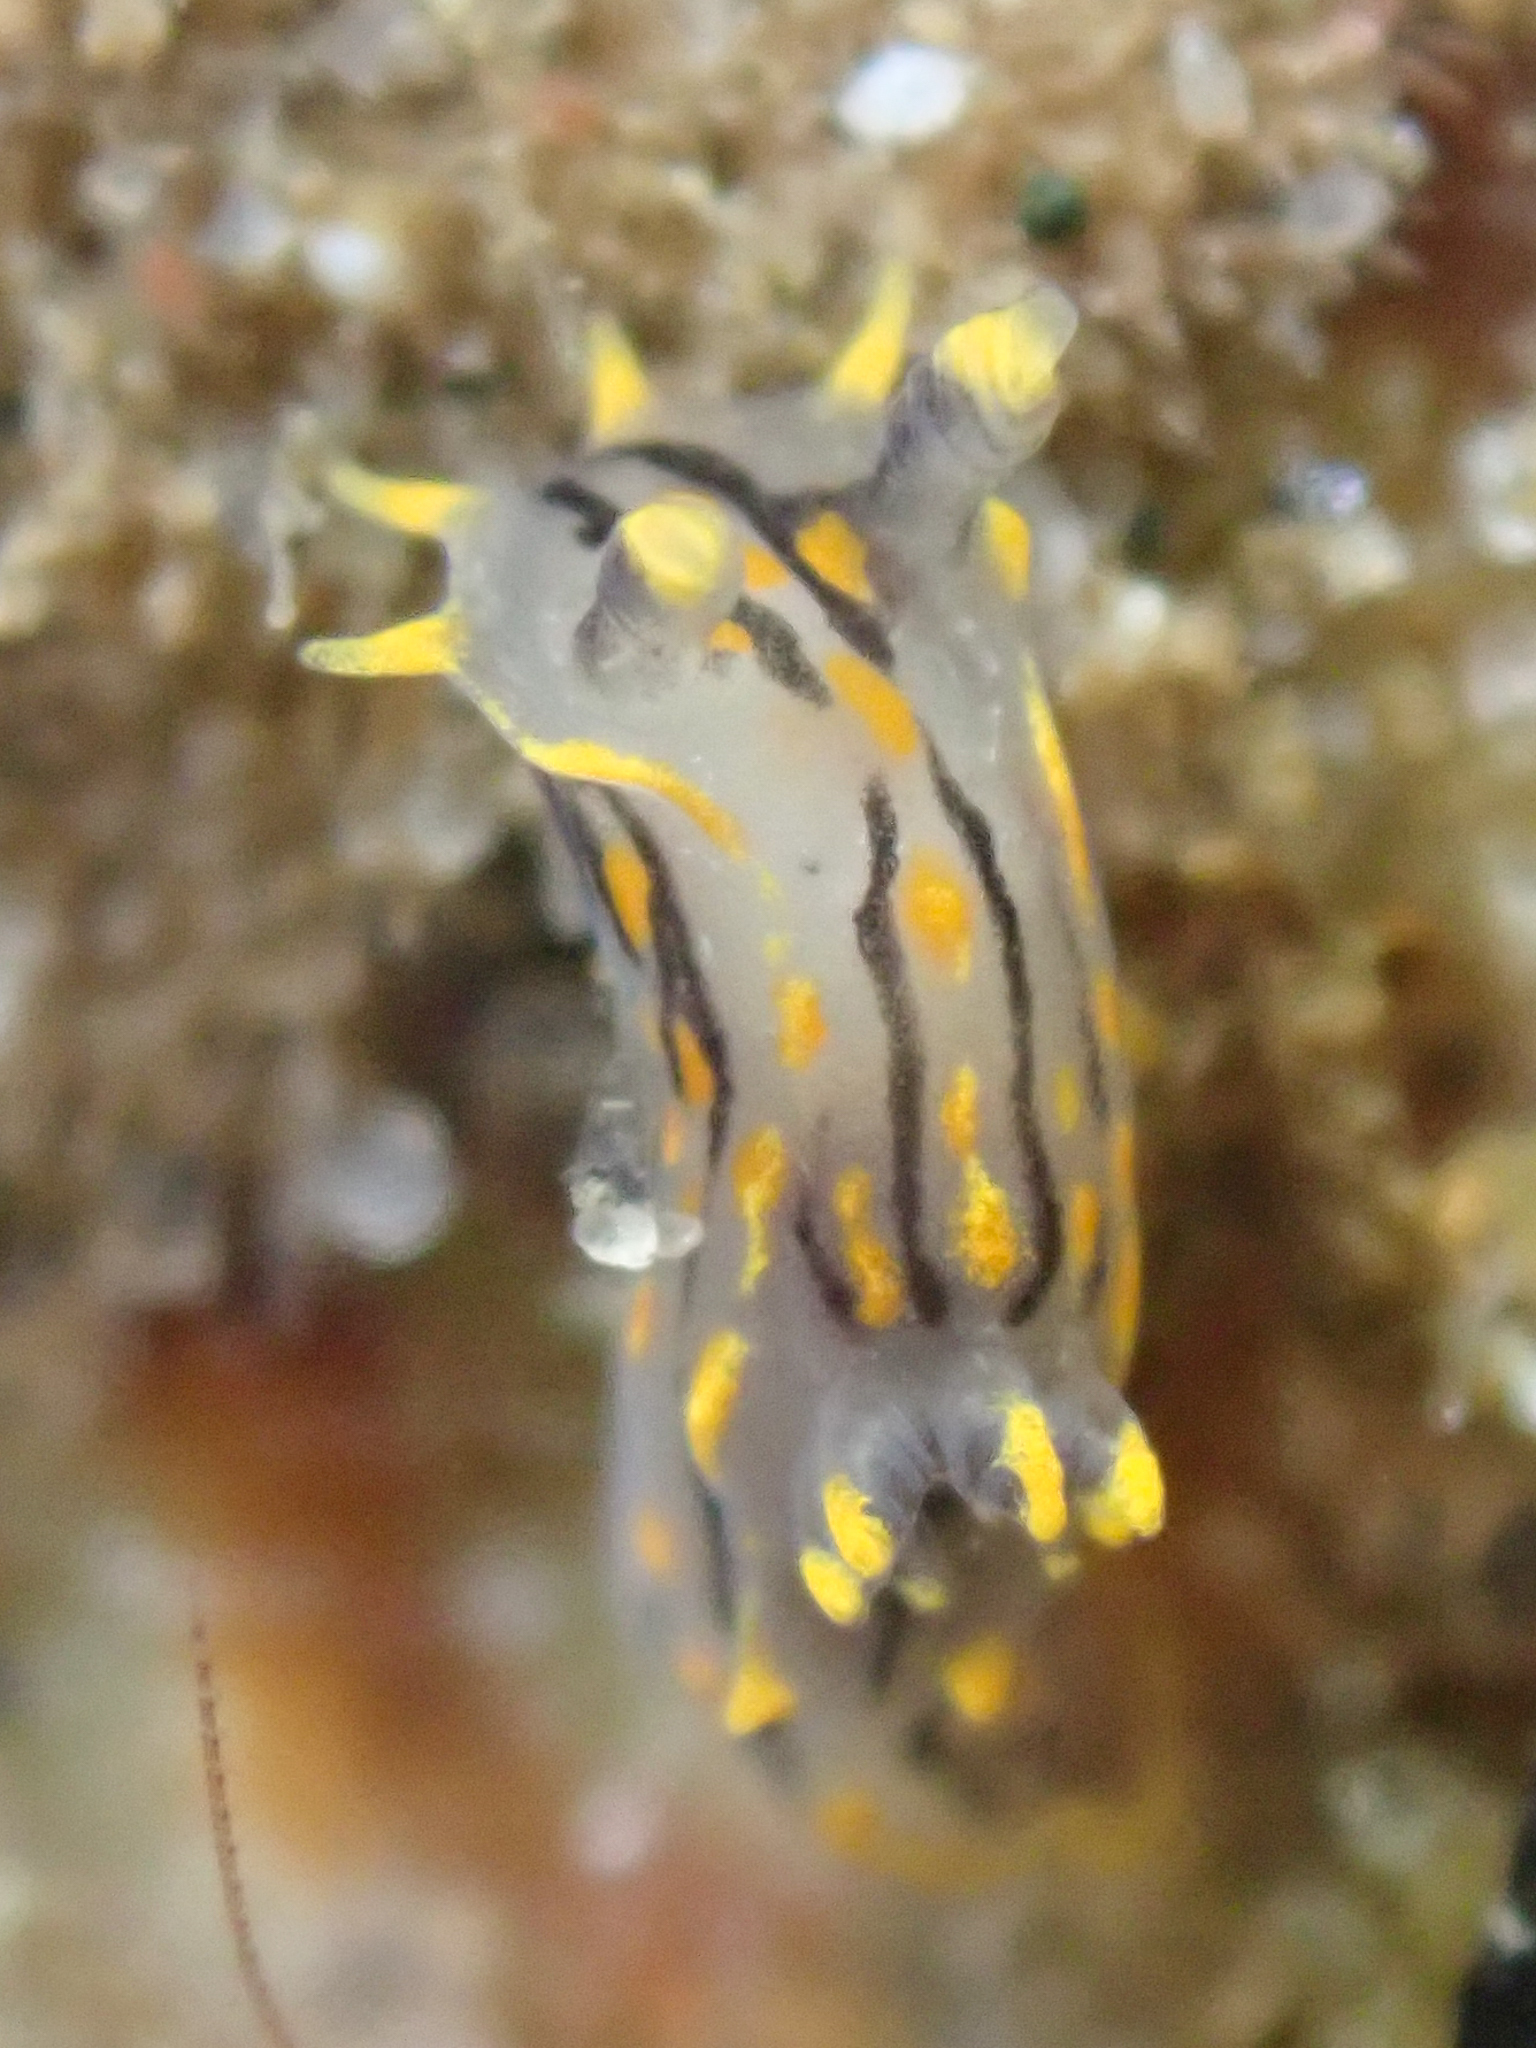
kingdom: Animalia
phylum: Mollusca
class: Gastropoda
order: Nudibranchia
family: Polyceridae
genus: Polycera
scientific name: Polycera atra
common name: Orange-spike polycera
